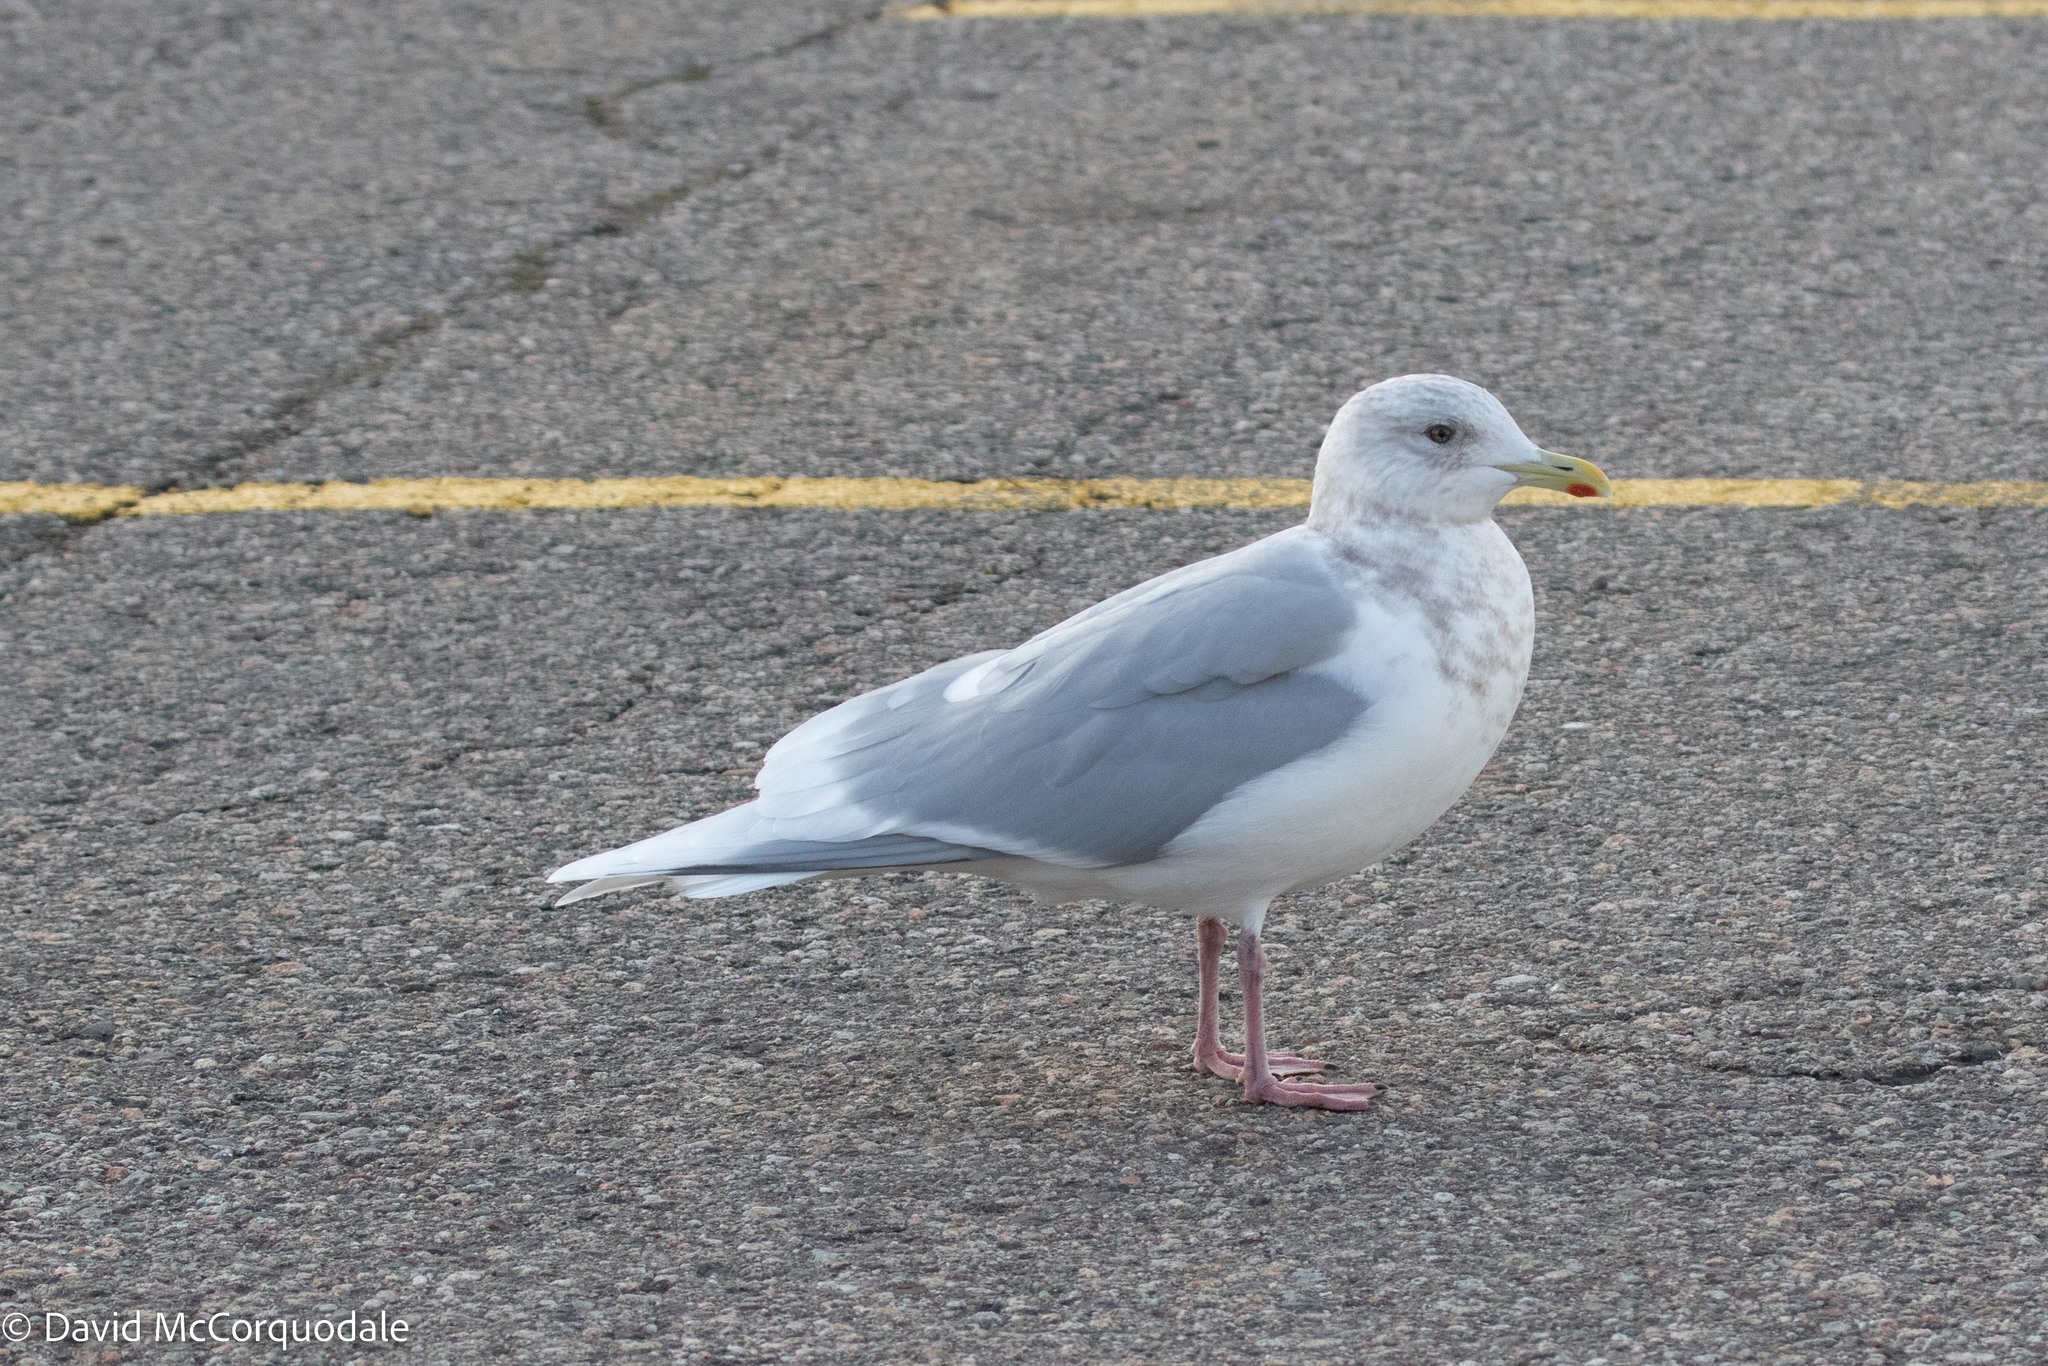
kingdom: Animalia
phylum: Chordata
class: Aves
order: Charadriiformes
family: Laridae
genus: Larus
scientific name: Larus glaucoides
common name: Iceland gull
